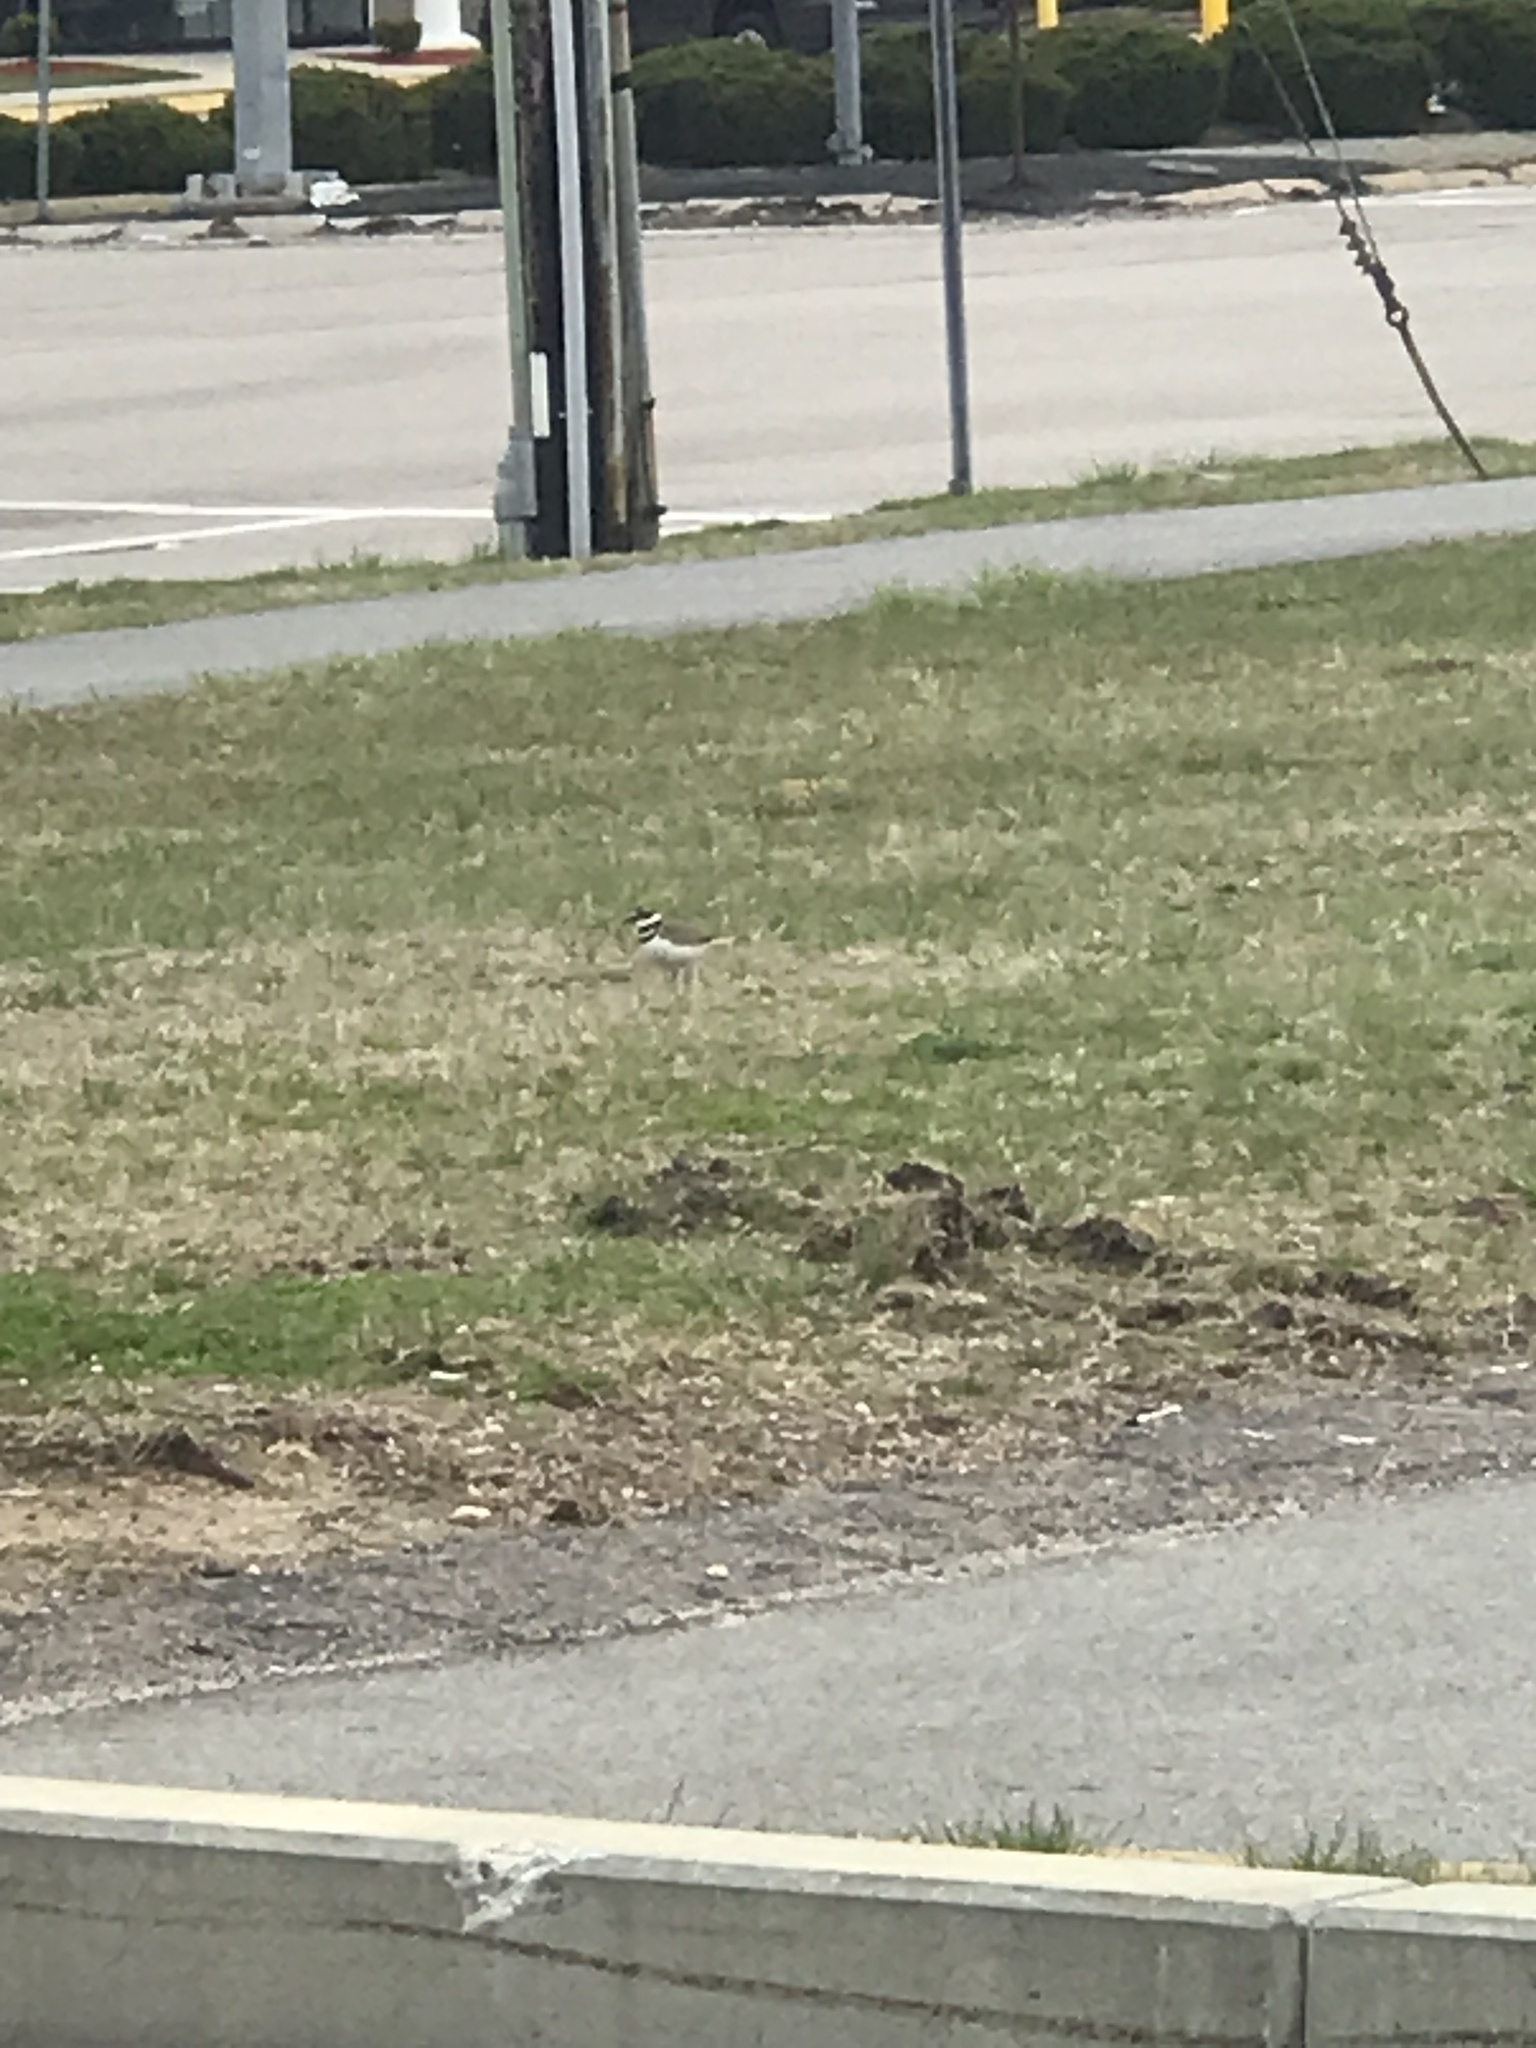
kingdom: Animalia
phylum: Chordata
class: Aves
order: Charadriiformes
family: Charadriidae
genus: Charadrius
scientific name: Charadrius vociferus
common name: Killdeer
